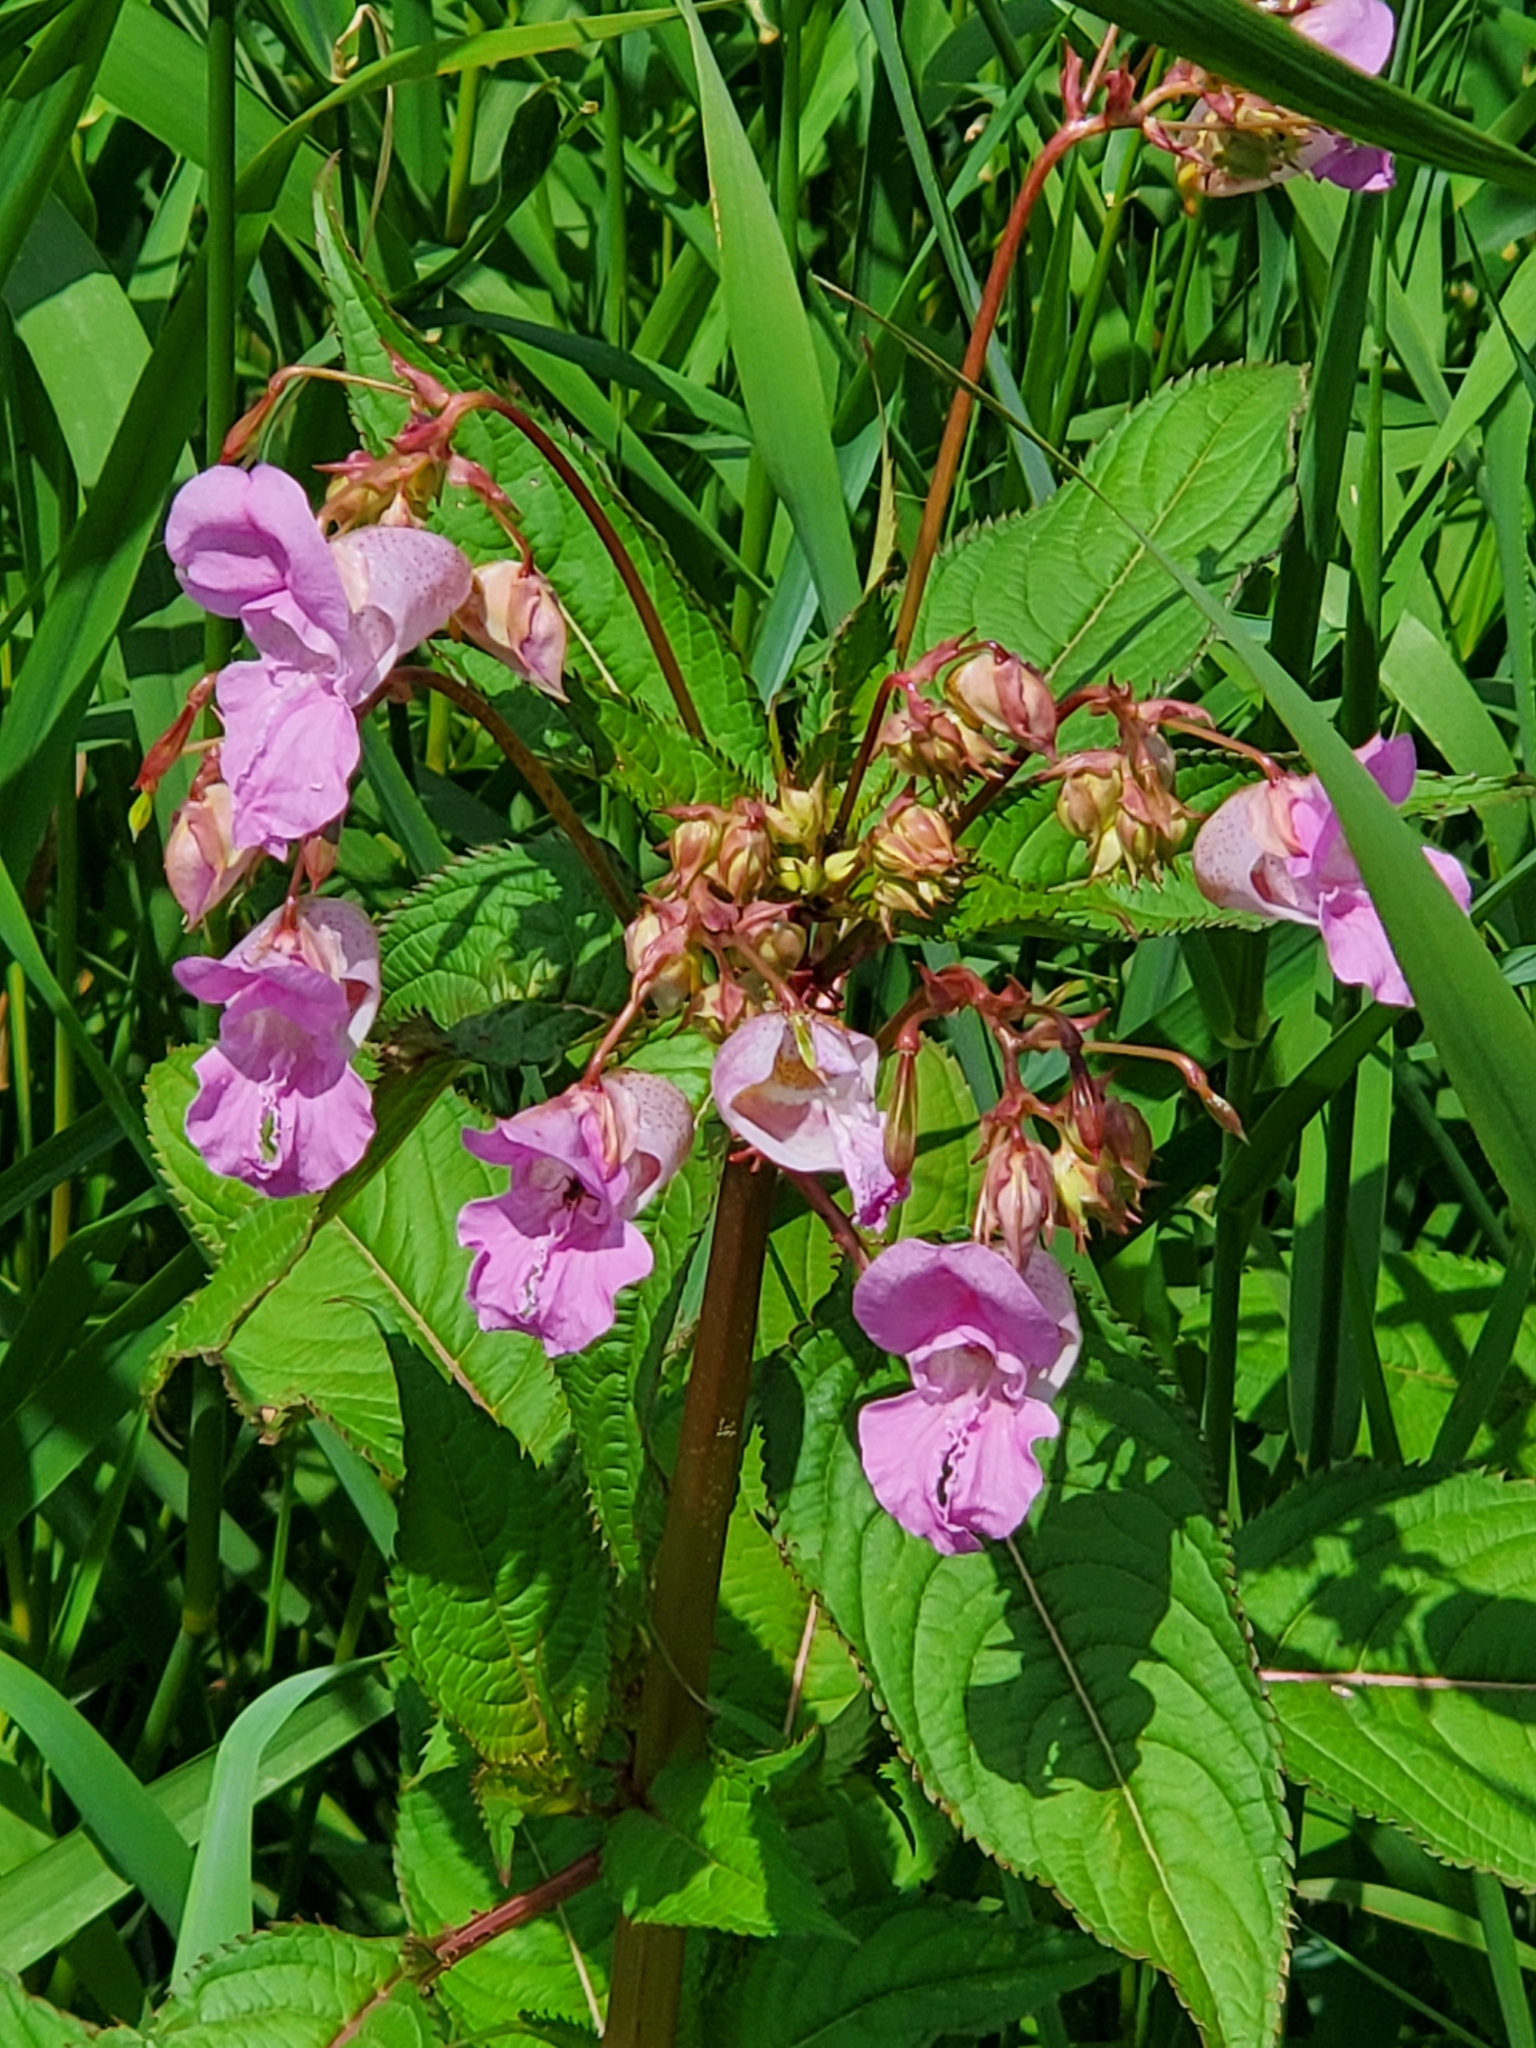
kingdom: Plantae
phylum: Tracheophyta
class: Magnoliopsida
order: Ericales
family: Balsaminaceae
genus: Impatiens
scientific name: Impatiens glandulifera
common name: Himalayan balsam
